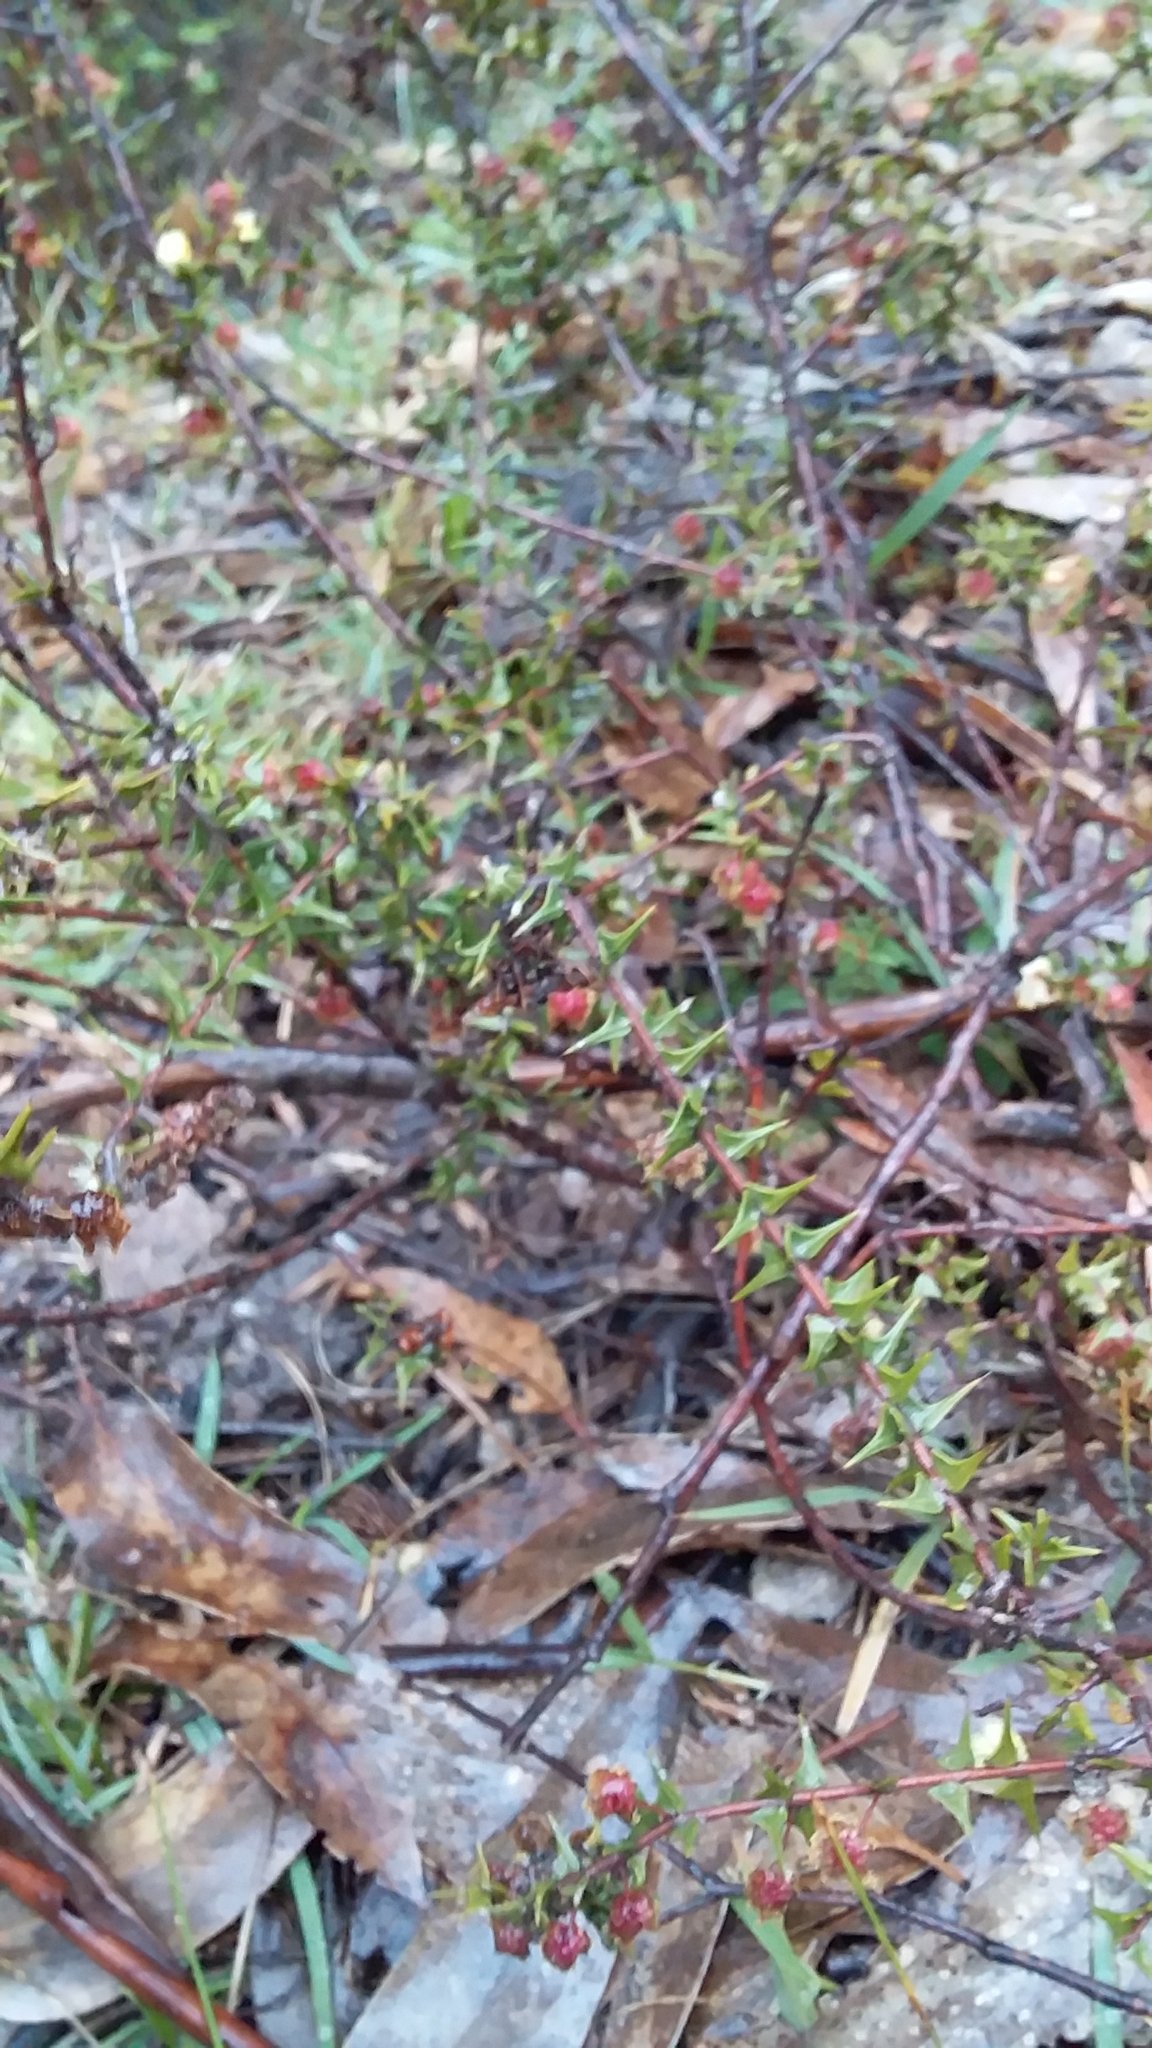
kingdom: Plantae
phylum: Tracheophyta
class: Magnoliopsida
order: Fabales
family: Fabaceae
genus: Acacia
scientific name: Acacia gunnii
